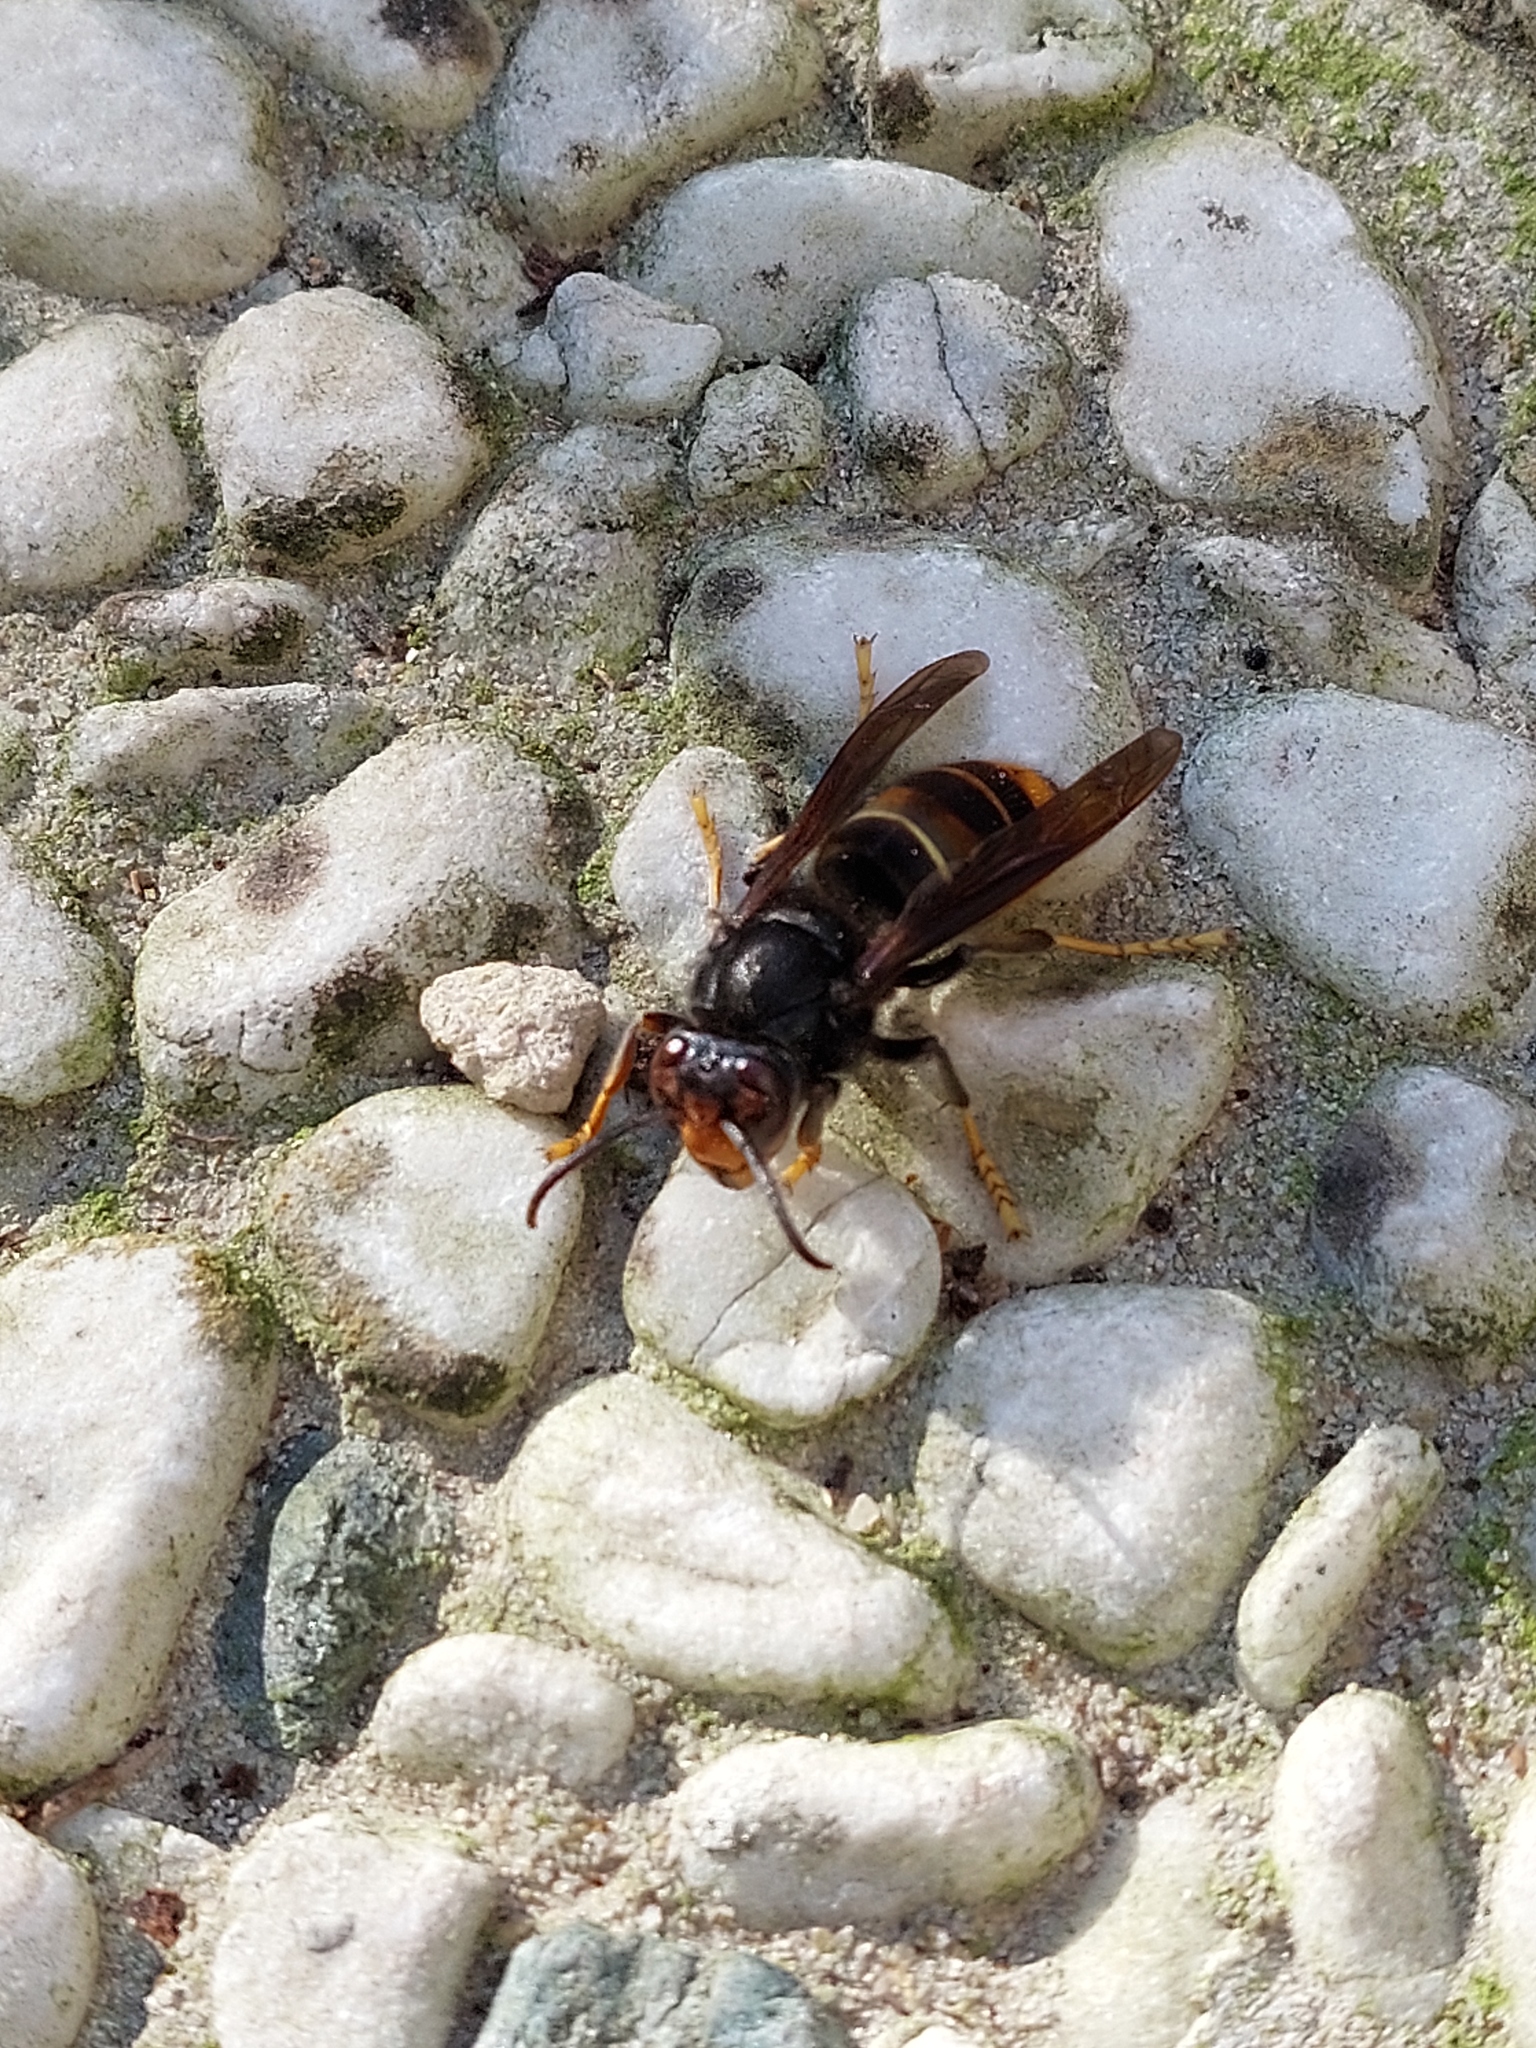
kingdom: Animalia
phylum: Arthropoda
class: Insecta
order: Hymenoptera
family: Vespidae
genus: Vespa
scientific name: Vespa velutina
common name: Asian hornet
